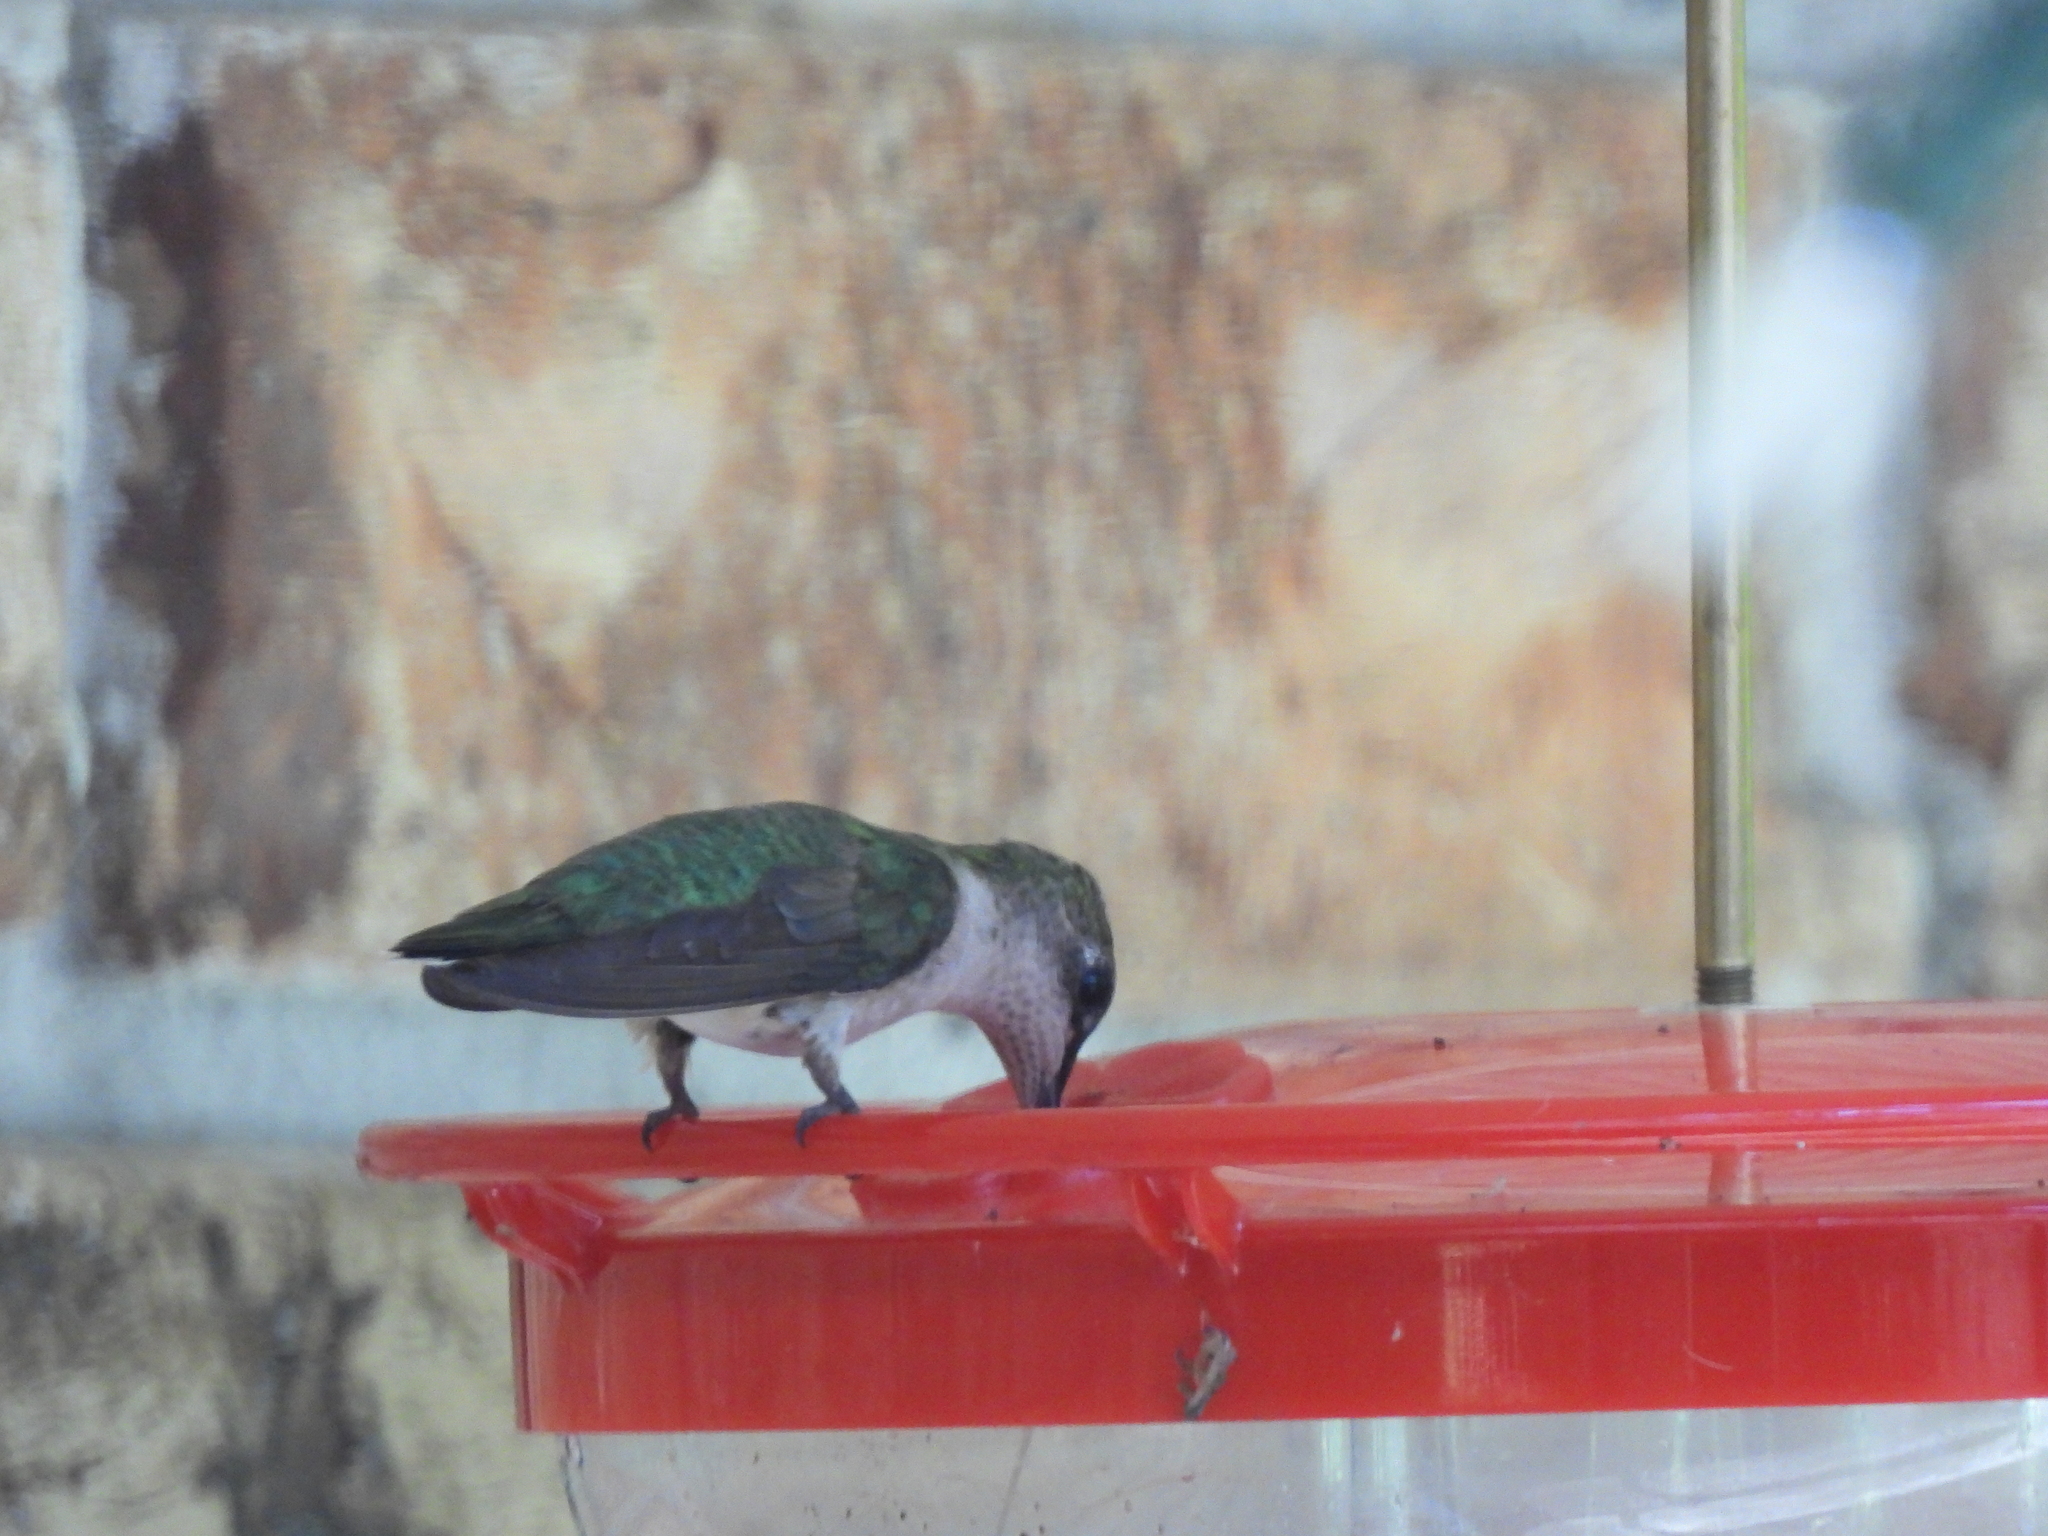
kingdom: Animalia
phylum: Chordata
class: Aves
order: Apodiformes
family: Trochilidae
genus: Archilochus
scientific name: Archilochus colubris
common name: Ruby-throated hummingbird
